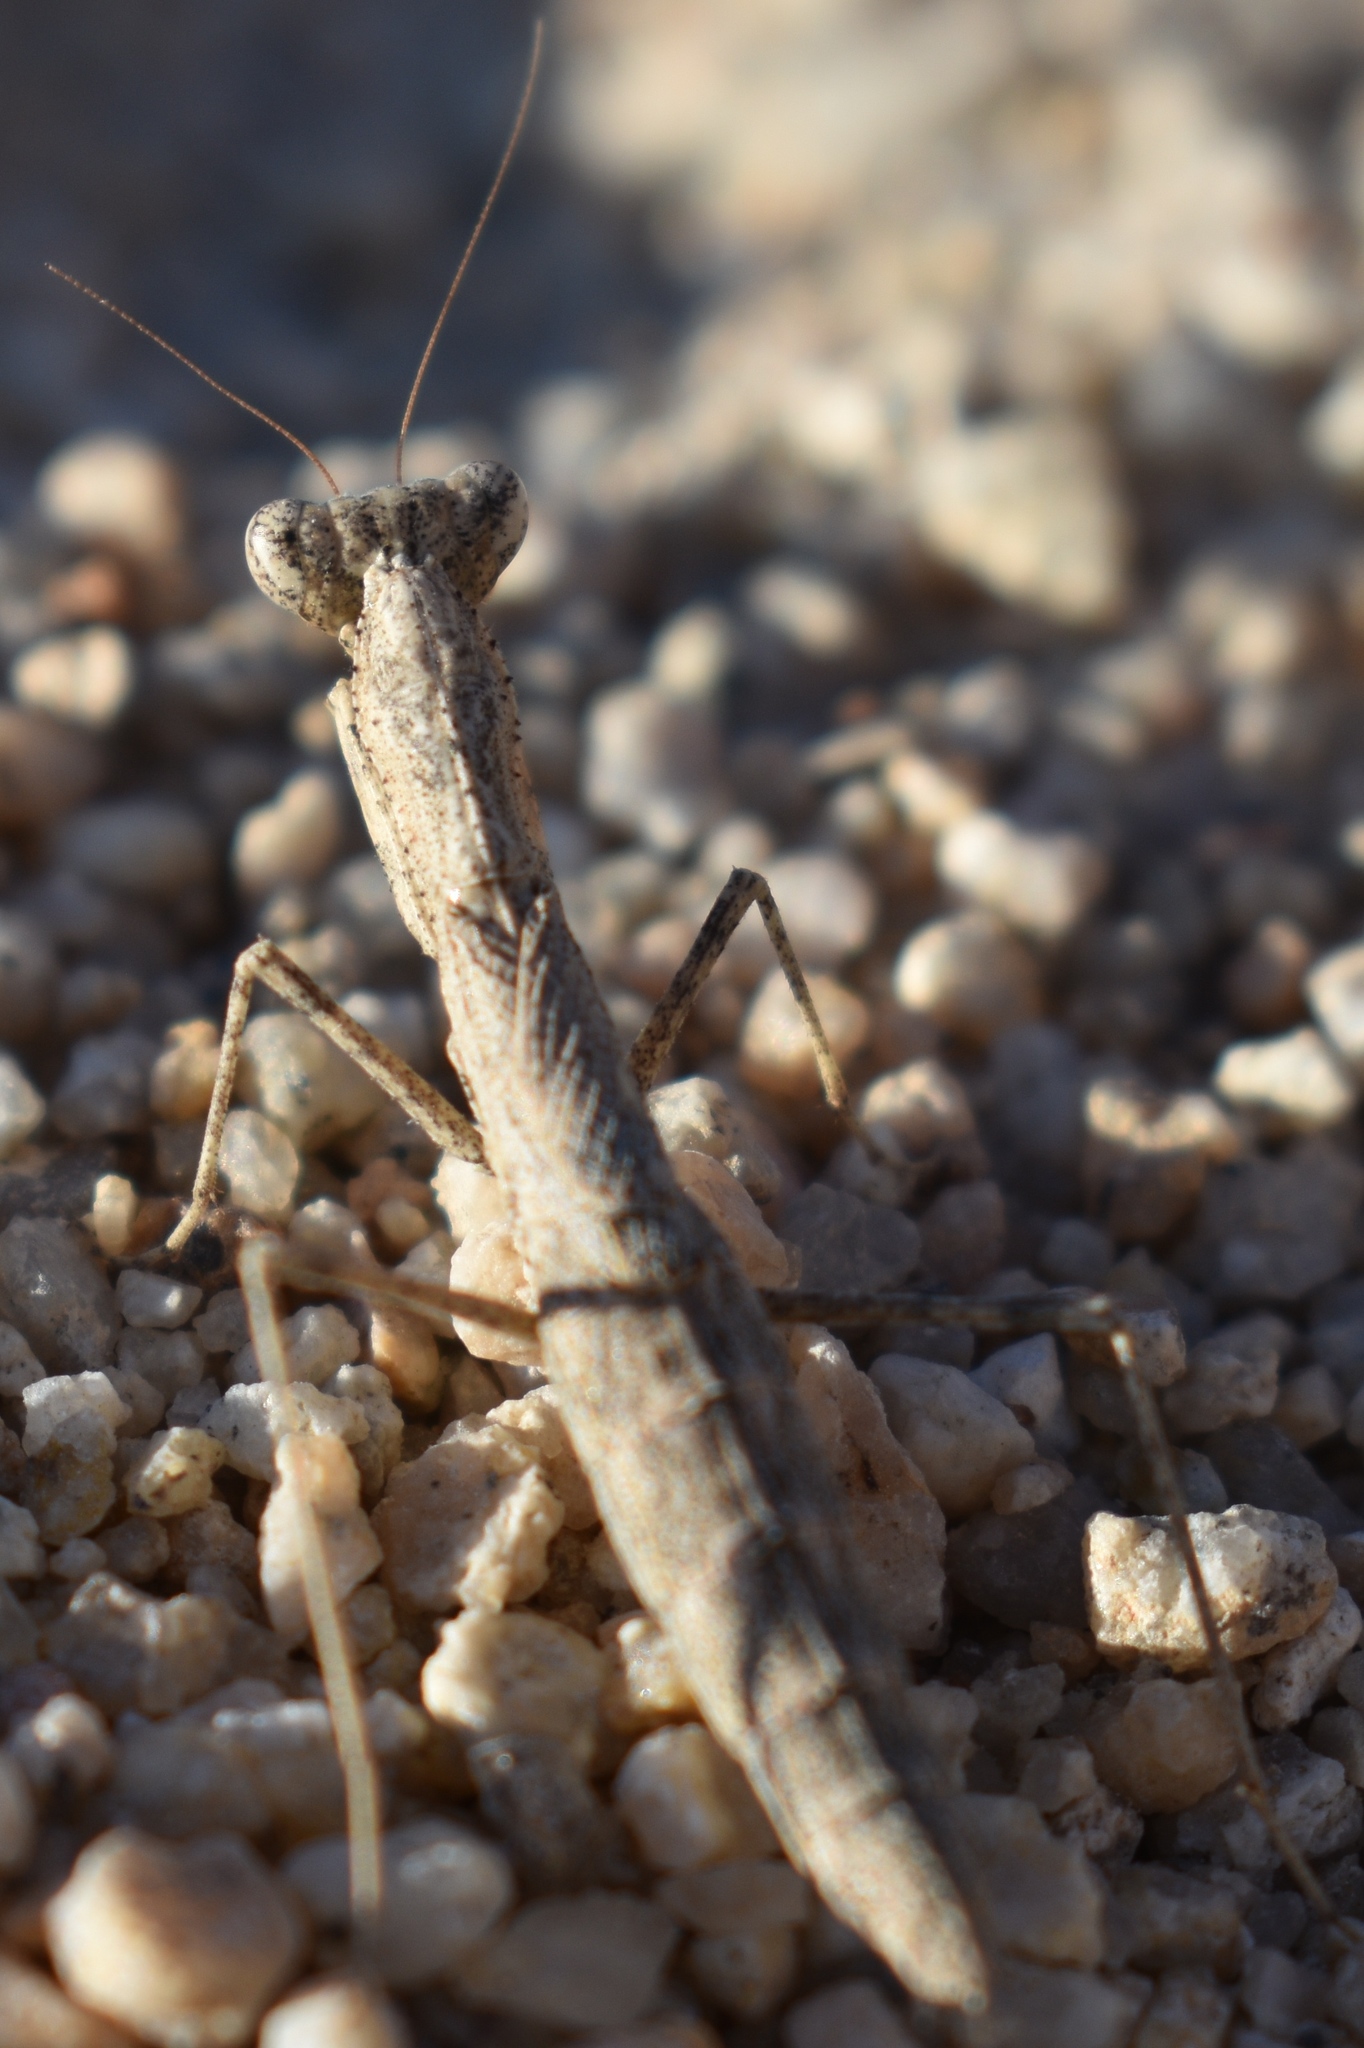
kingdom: Animalia
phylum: Arthropoda
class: Insecta
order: Mantodea
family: Amelidae
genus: Litaneutria
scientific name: Litaneutria ocularis
